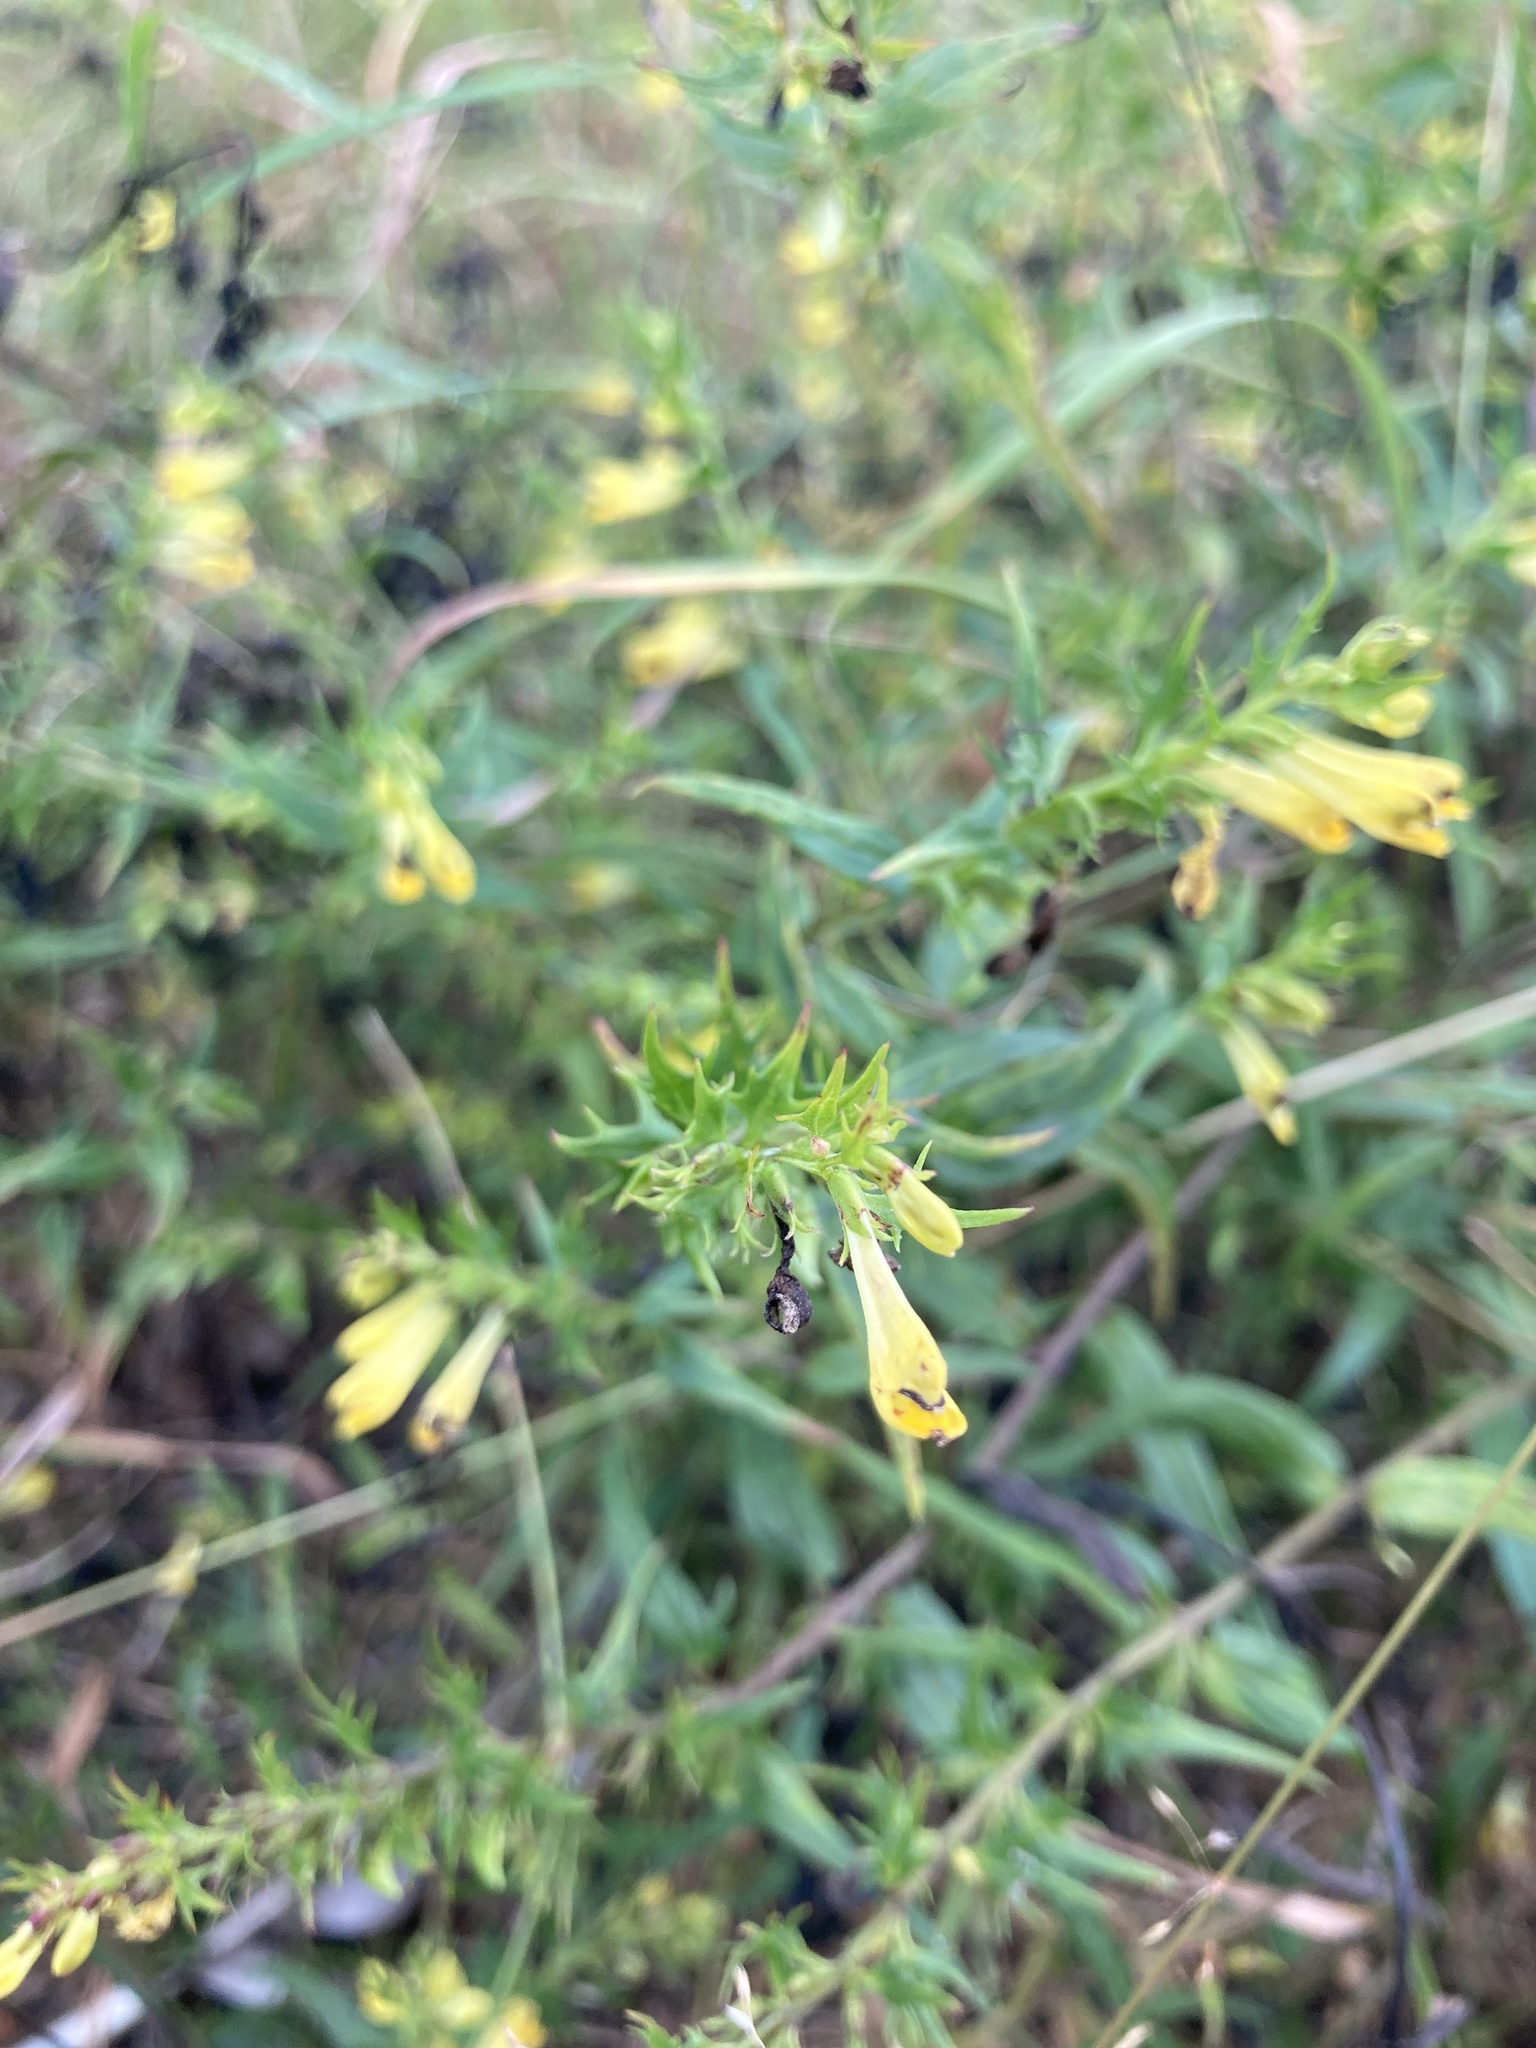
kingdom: Plantae
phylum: Tracheophyta
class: Magnoliopsida
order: Lamiales
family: Orobanchaceae
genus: Melampyrum
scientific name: Melampyrum pratense
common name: Common cow-wheat
